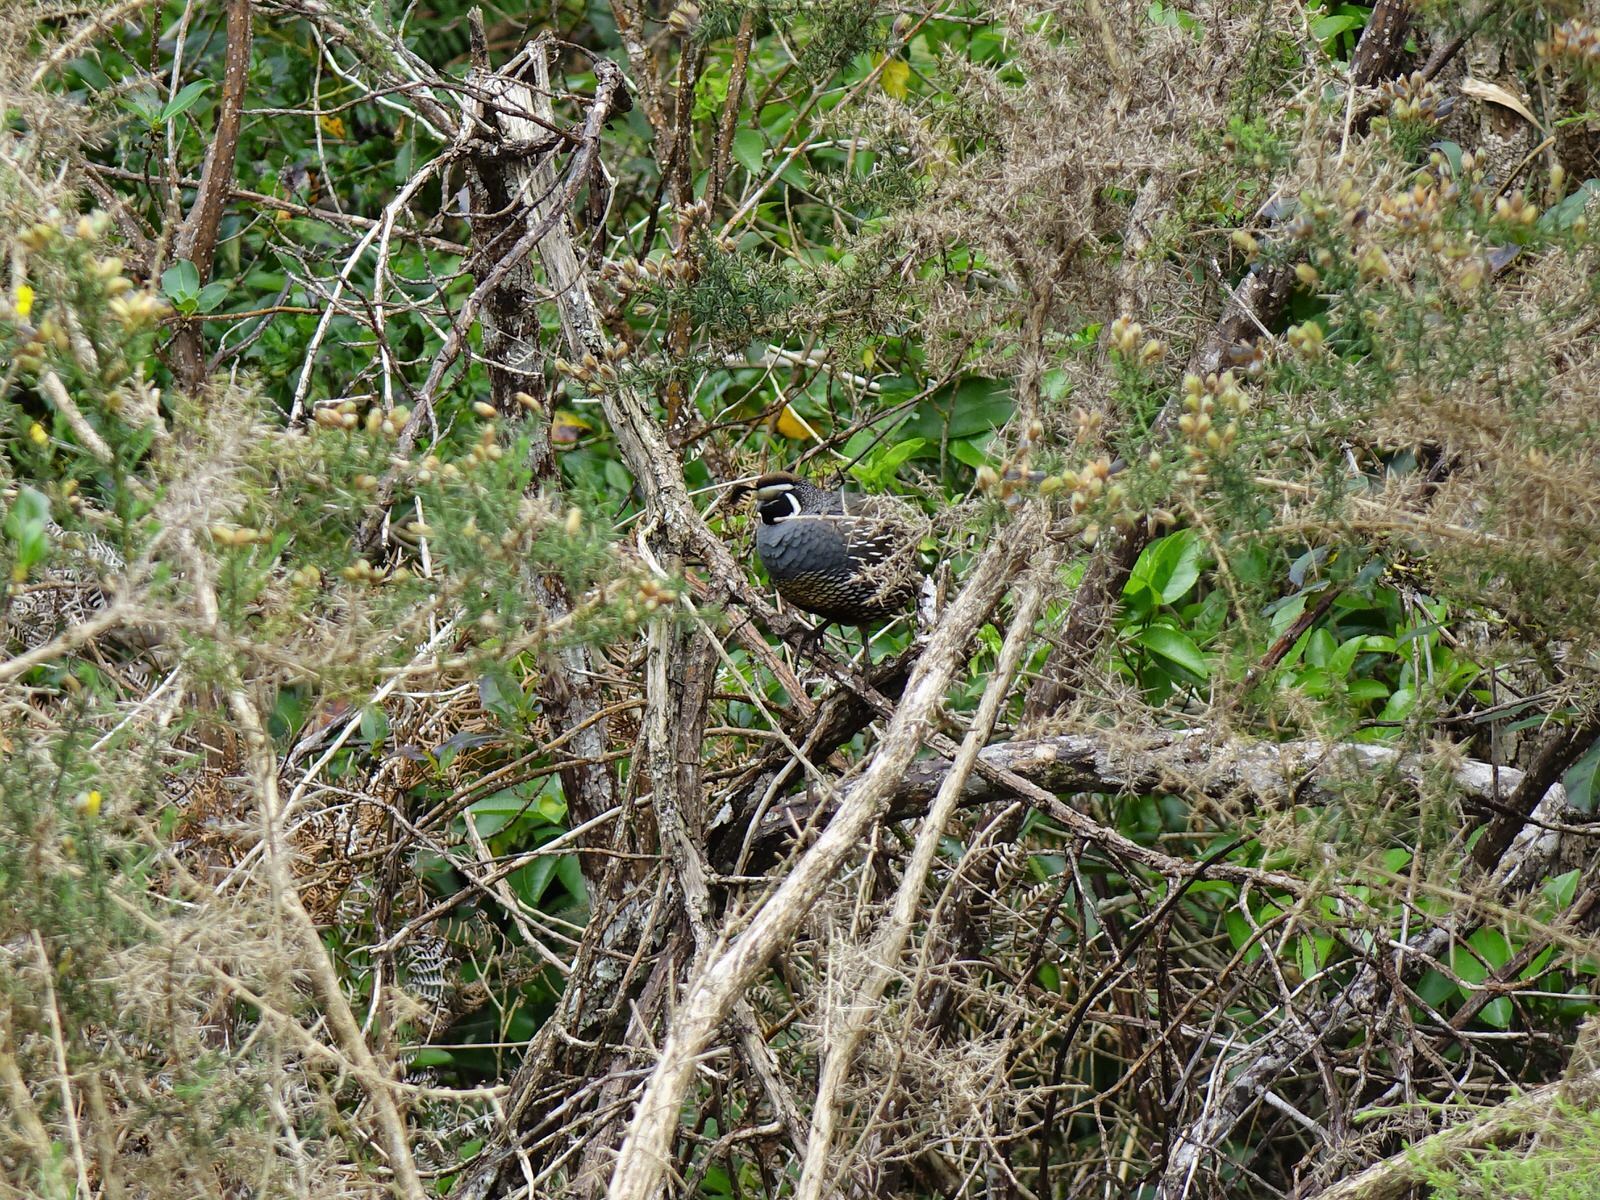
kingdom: Animalia
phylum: Chordata
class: Aves
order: Galliformes
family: Odontophoridae
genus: Callipepla
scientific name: Callipepla californica
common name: California quail
